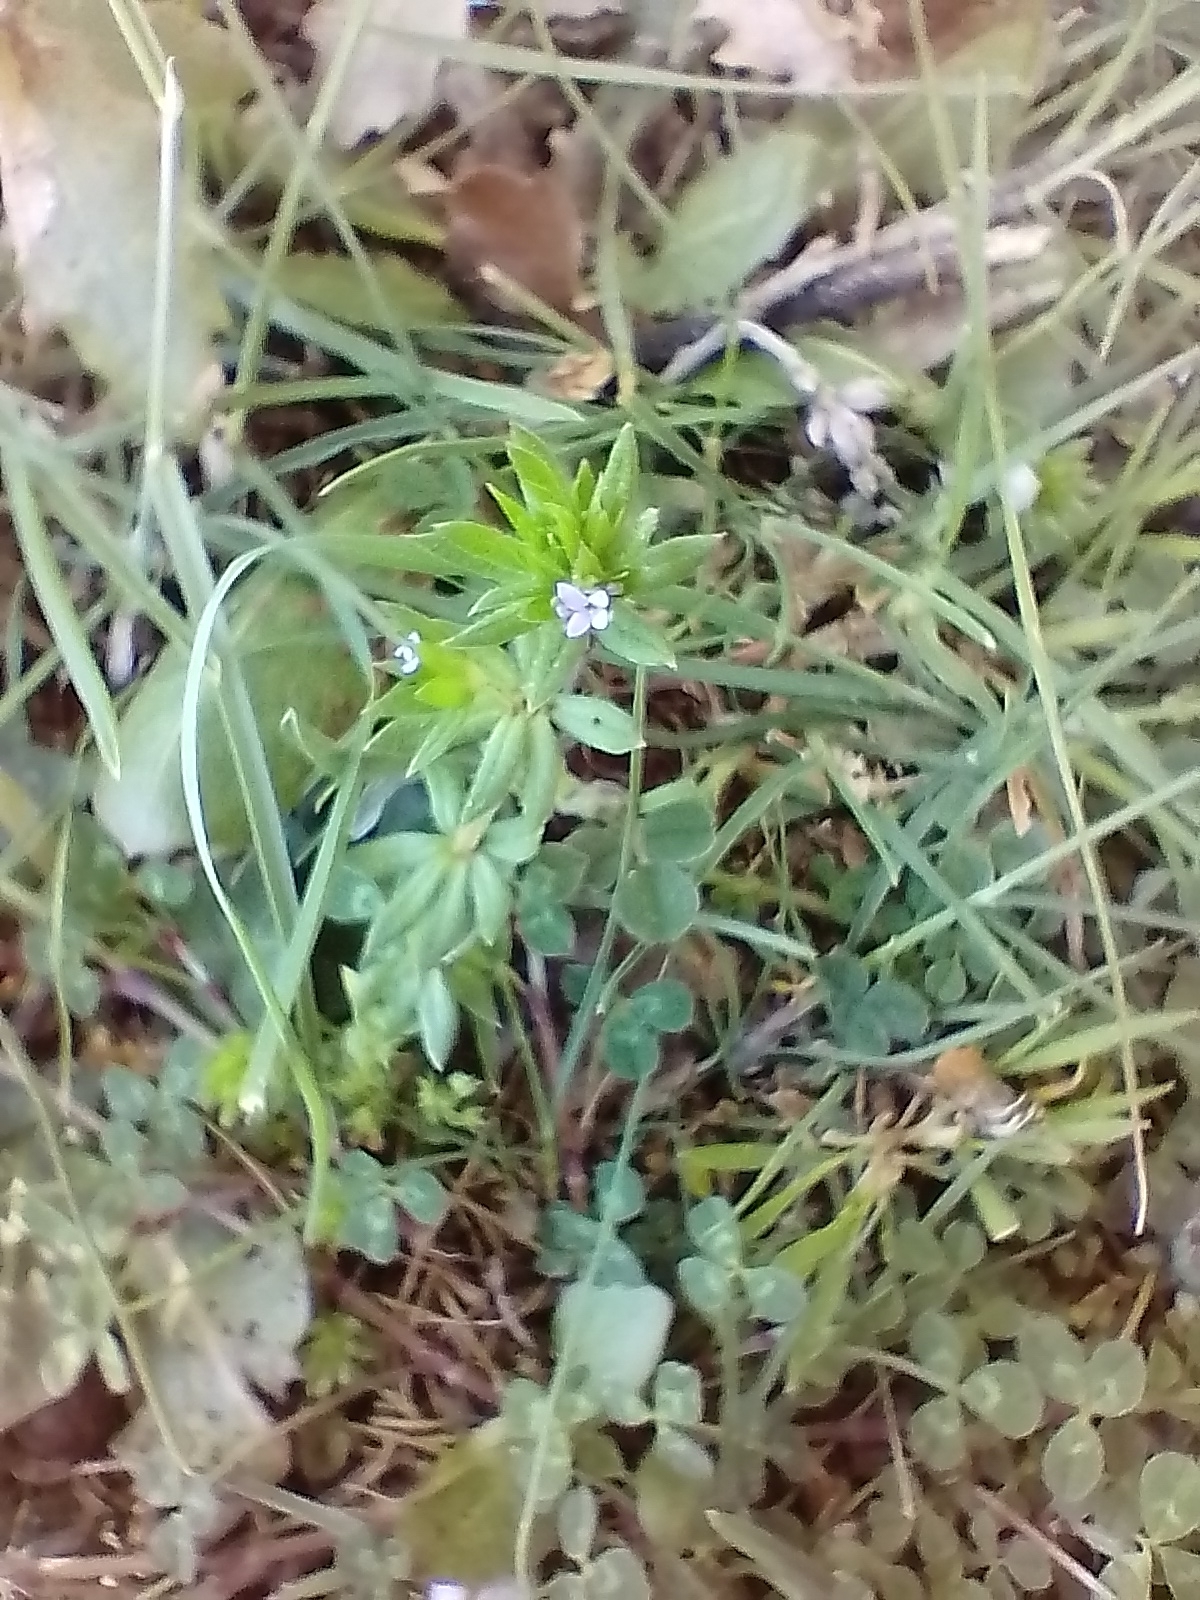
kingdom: Plantae
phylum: Tracheophyta
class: Magnoliopsida
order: Gentianales
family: Rubiaceae
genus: Sherardia
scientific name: Sherardia arvensis
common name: Field madder
